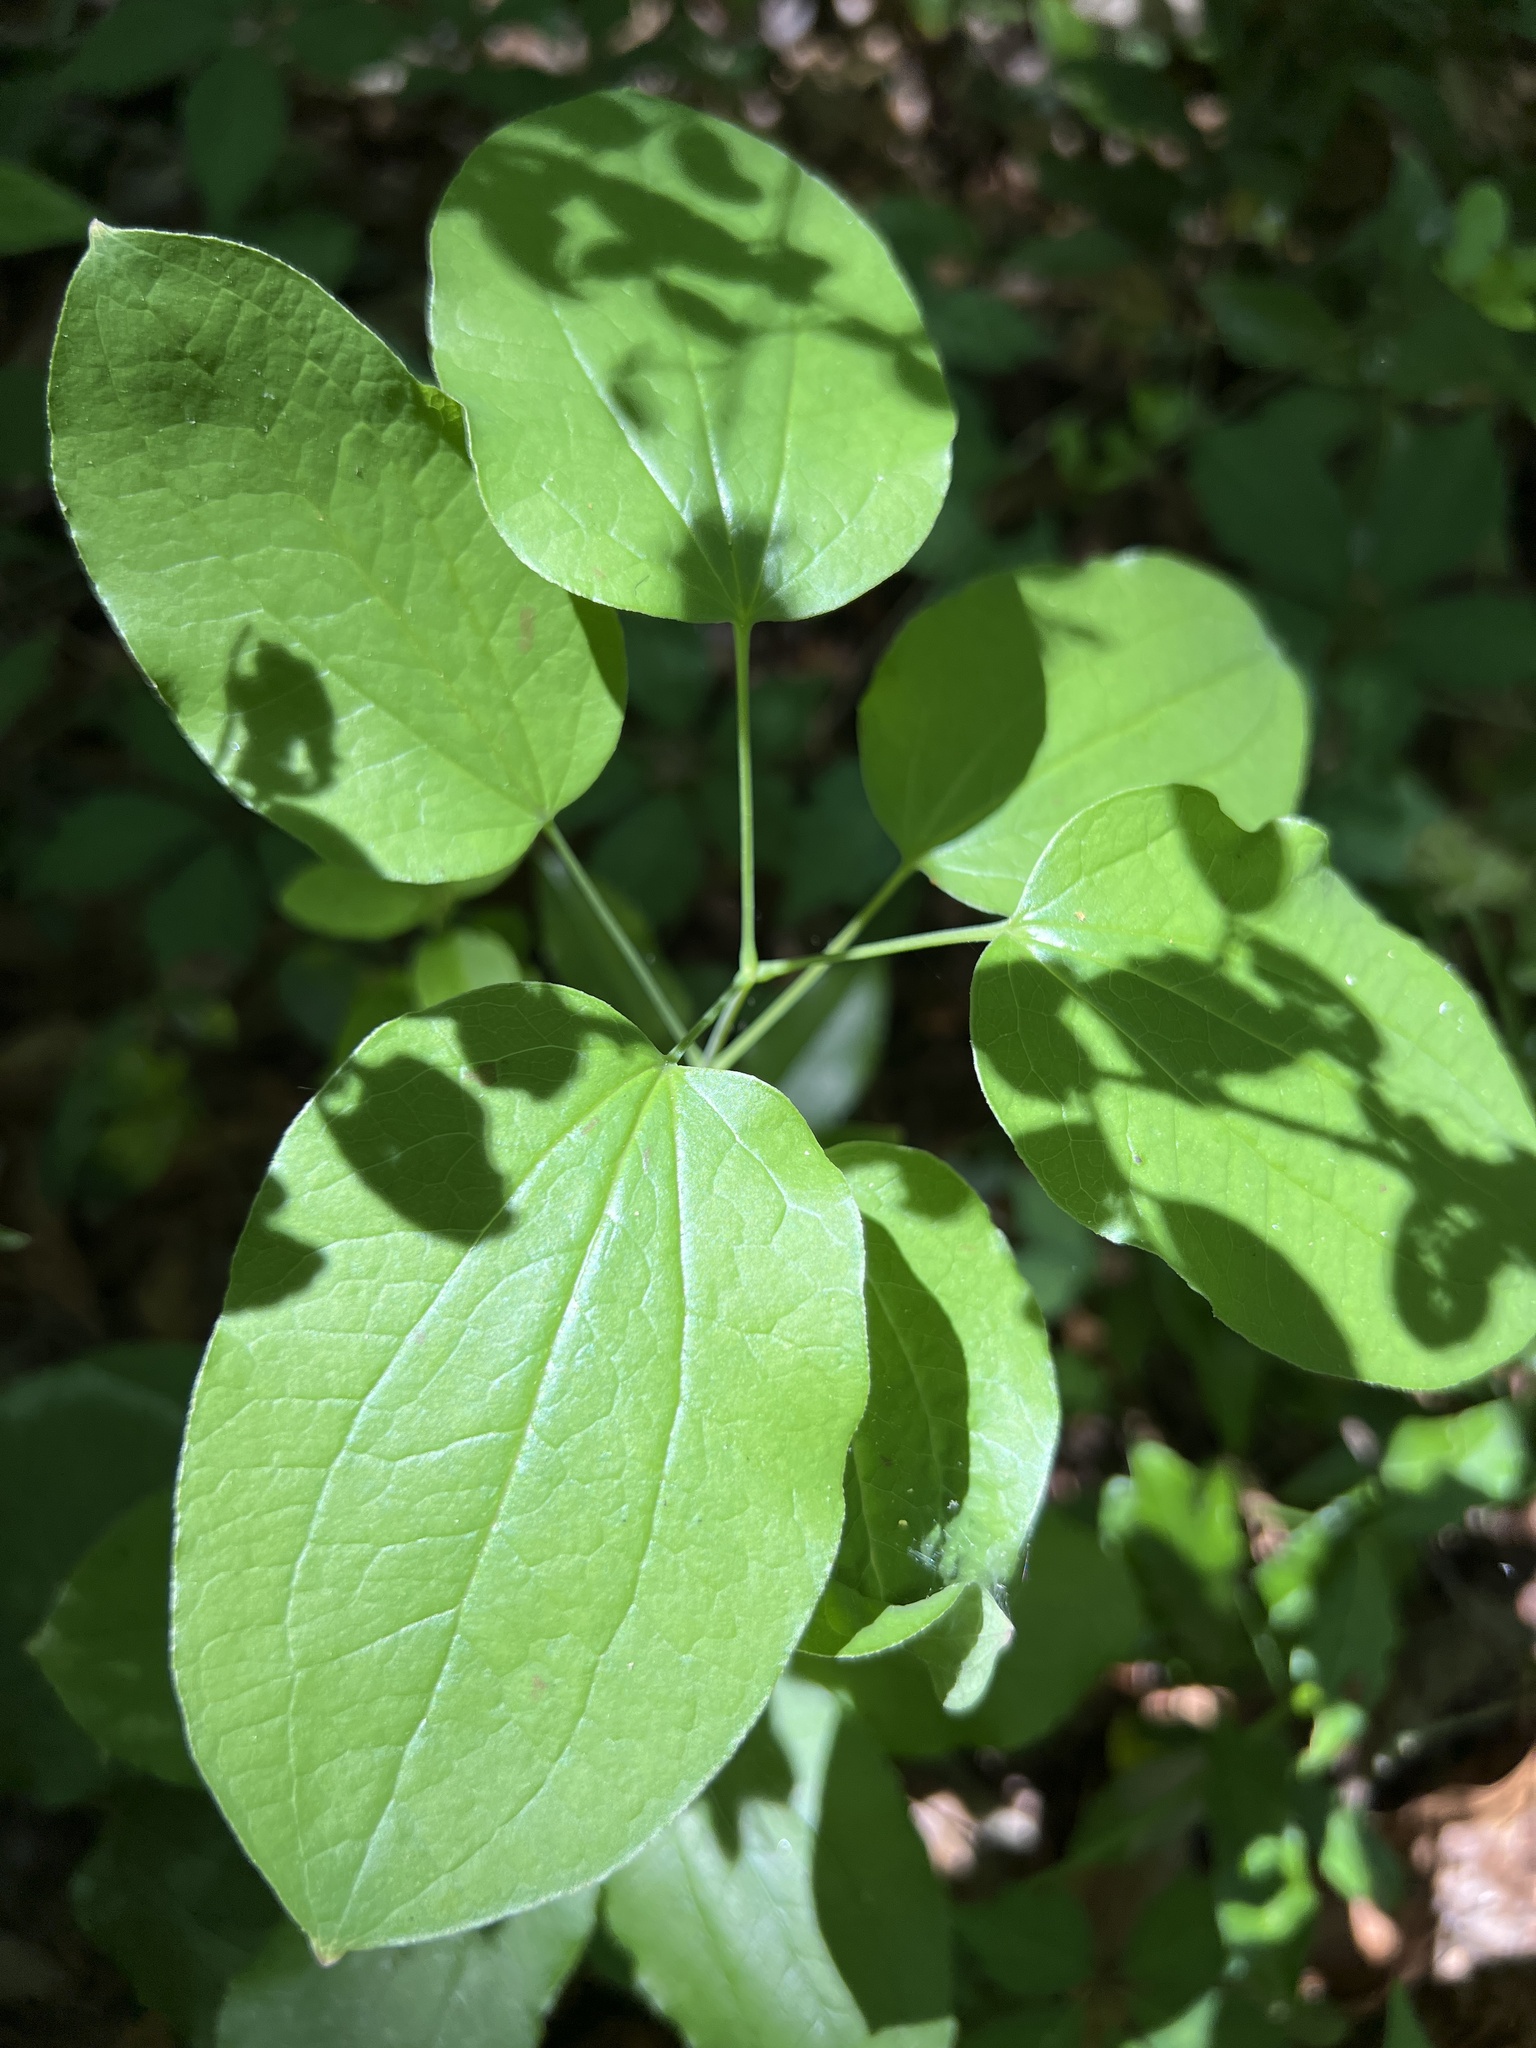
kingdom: Plantae
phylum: Tracheophyta
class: Liliopsida
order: Liliales
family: Smilacaceae
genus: Smilax
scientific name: Smilax lasioneura
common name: Blue ridge carrionflower
